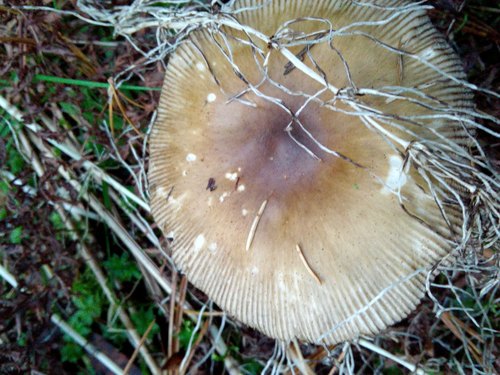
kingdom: Fungi
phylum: Basidiomycota
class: Agaricomycetes
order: Agaricales
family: Amanitaceae
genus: Amanita
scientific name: Amanita fulva
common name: Tawny grisette
